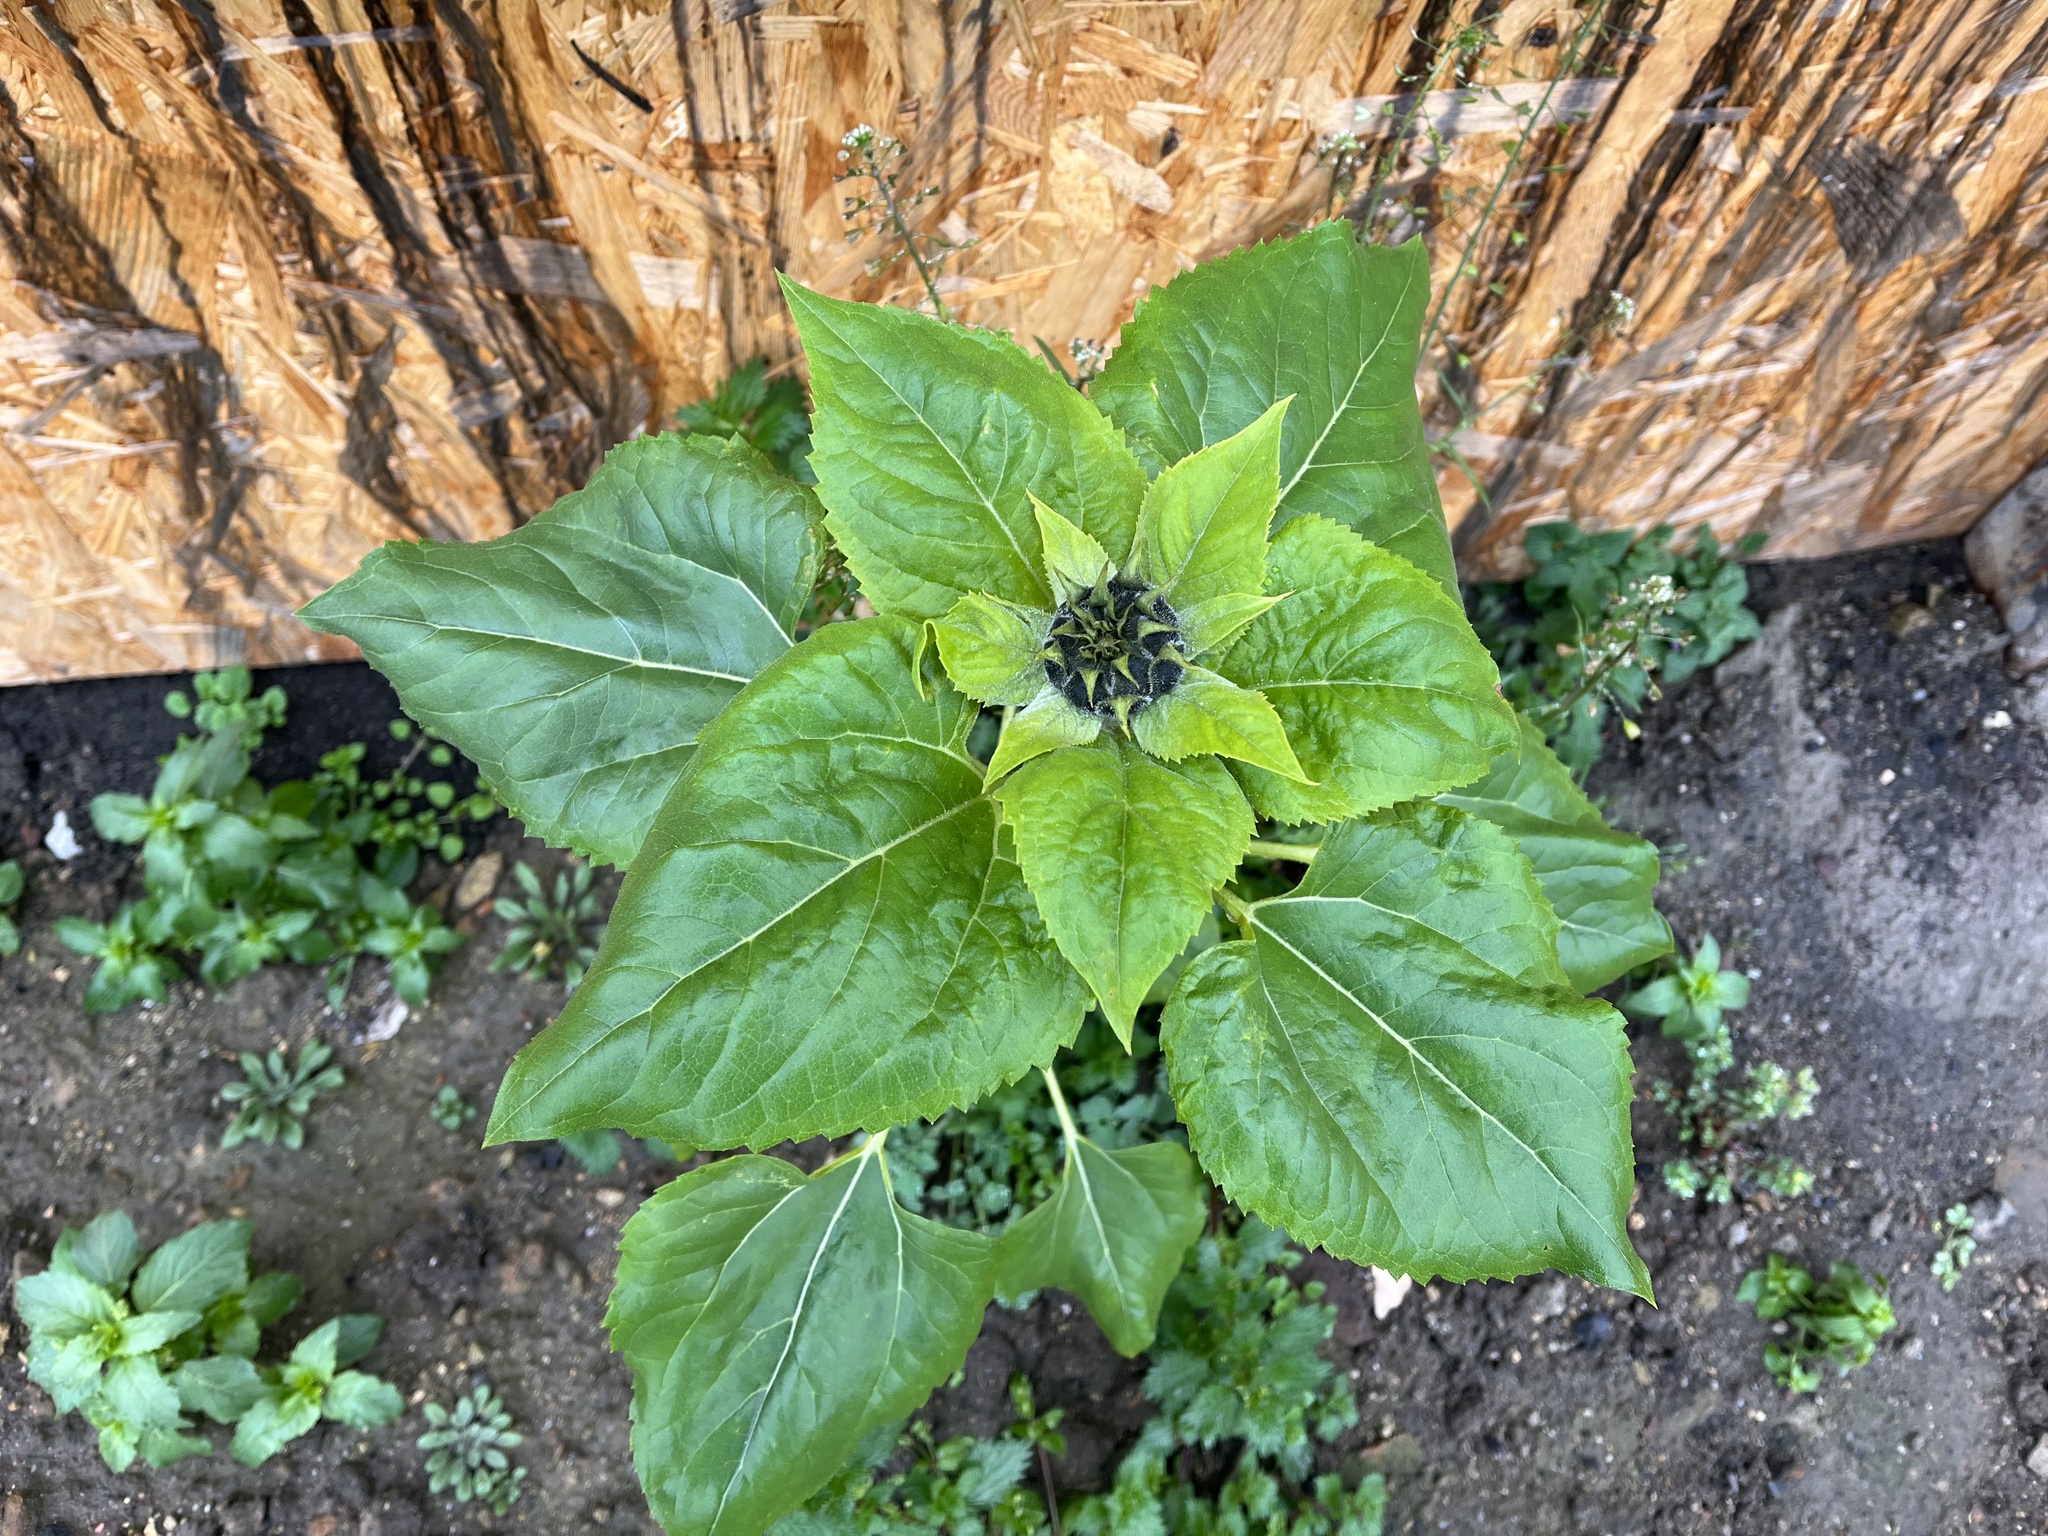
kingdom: Plantae
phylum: Tracheophyta
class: Magnoliopsida
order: Asterales
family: Asteraceae
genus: Helianthus
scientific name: Helianthus annuus
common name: Sunflower
